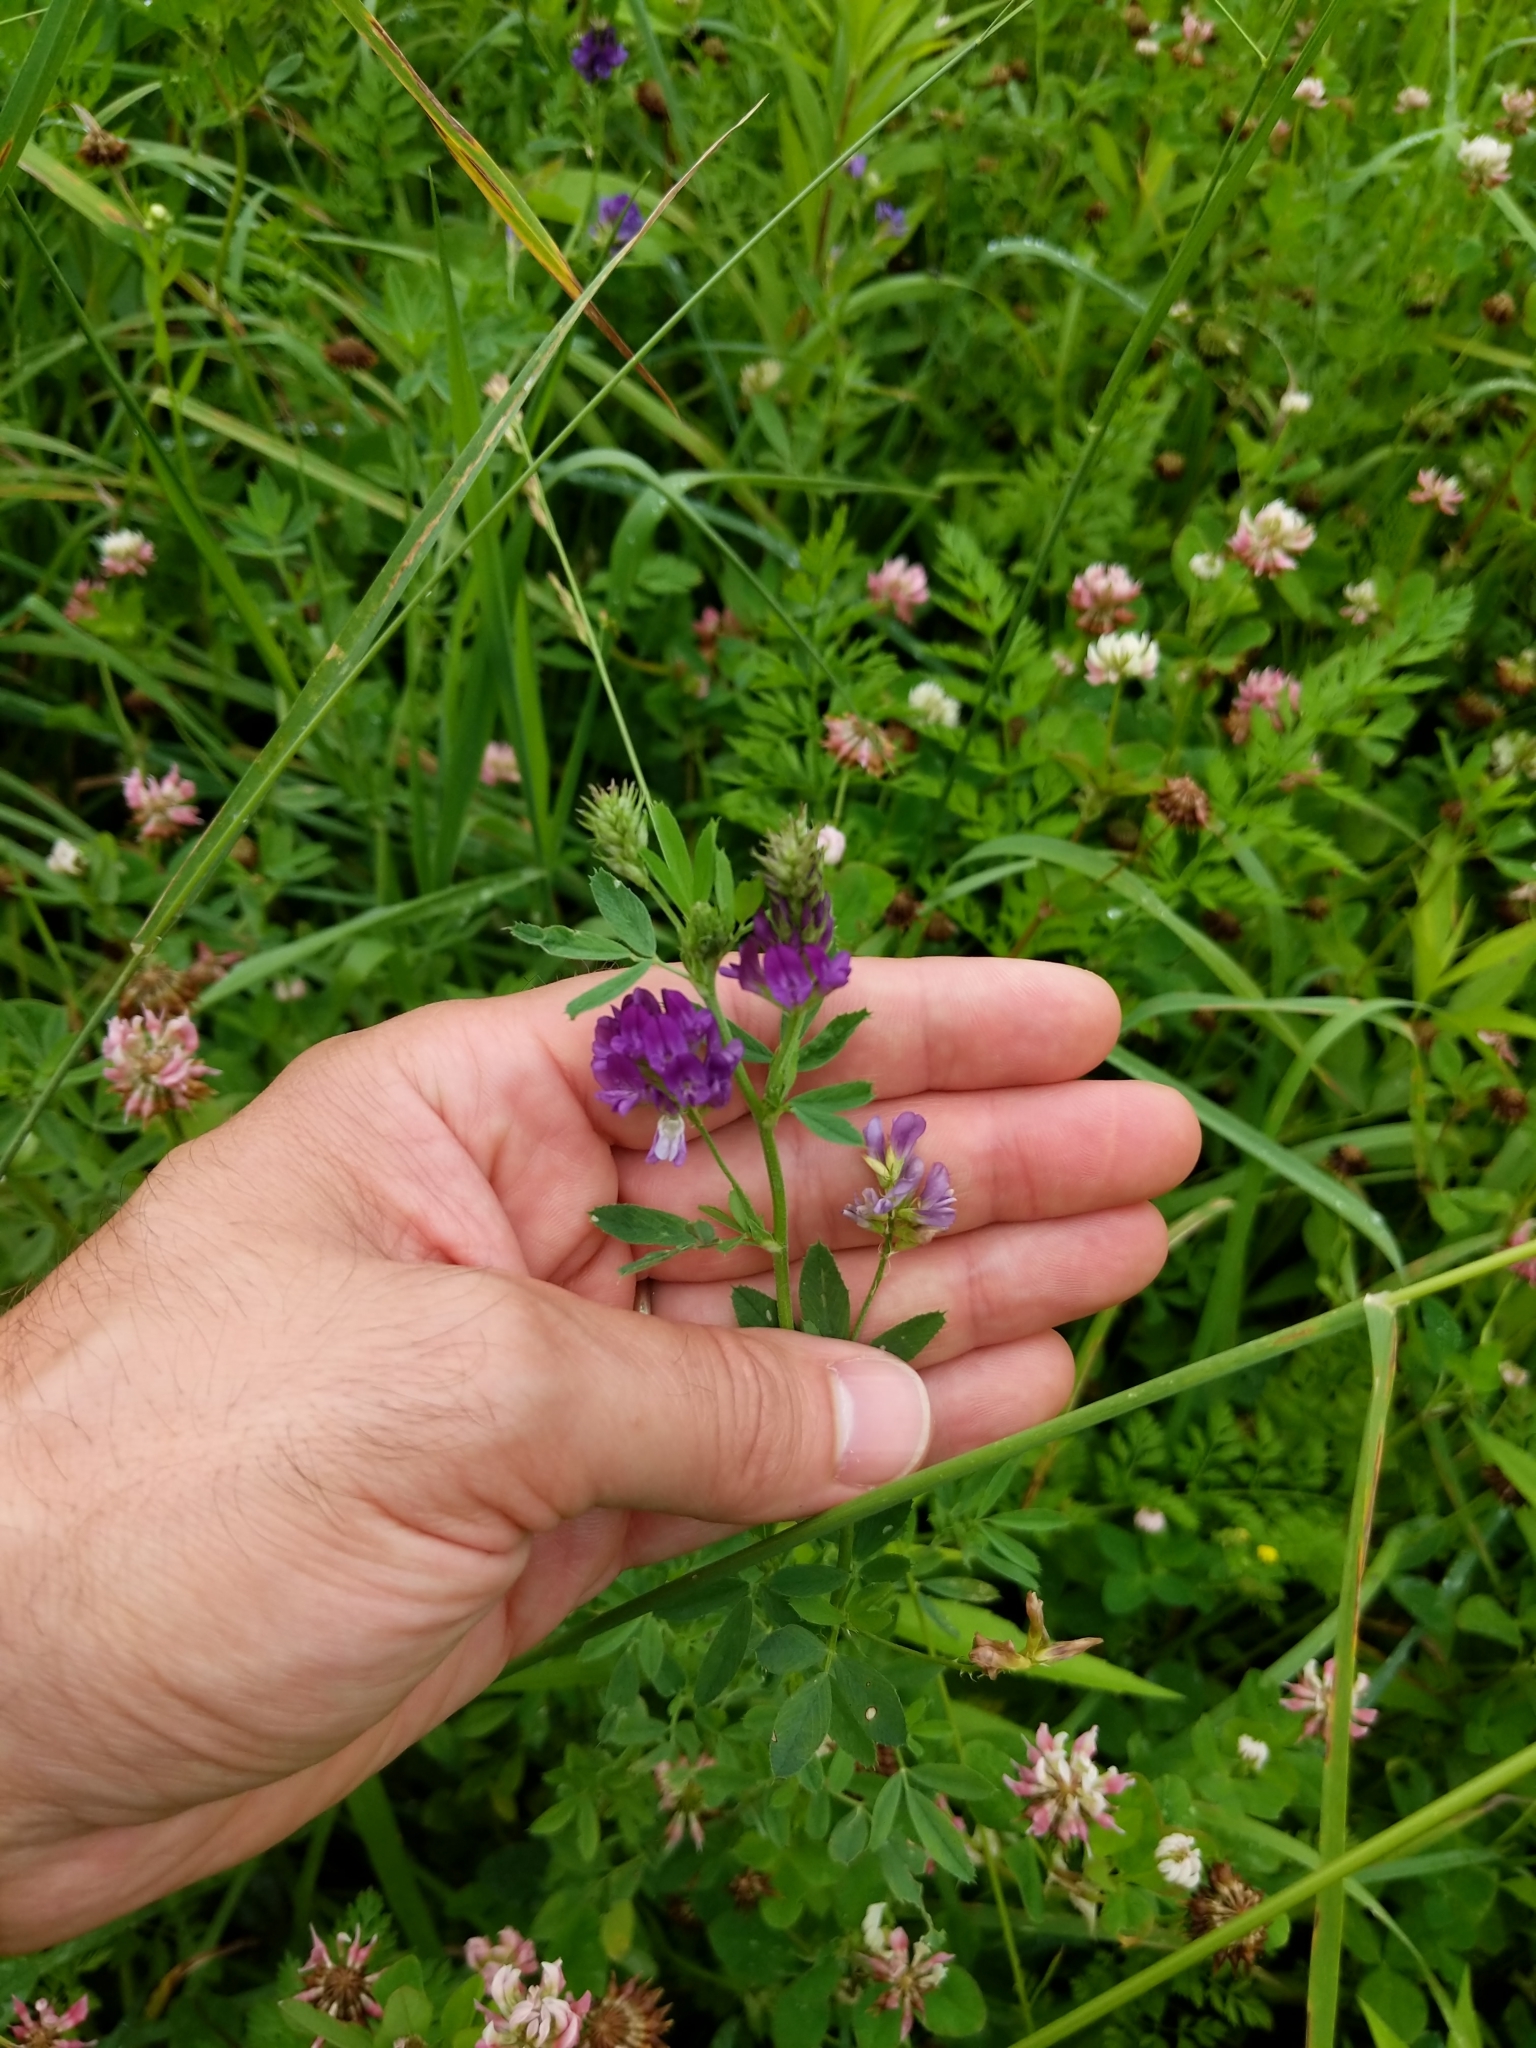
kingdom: Plantae
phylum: Tracheophyta
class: Magnoliopsida
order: Fabales
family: Fabaceae
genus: Medicago
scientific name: Medicago sativa
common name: Alfalfa
